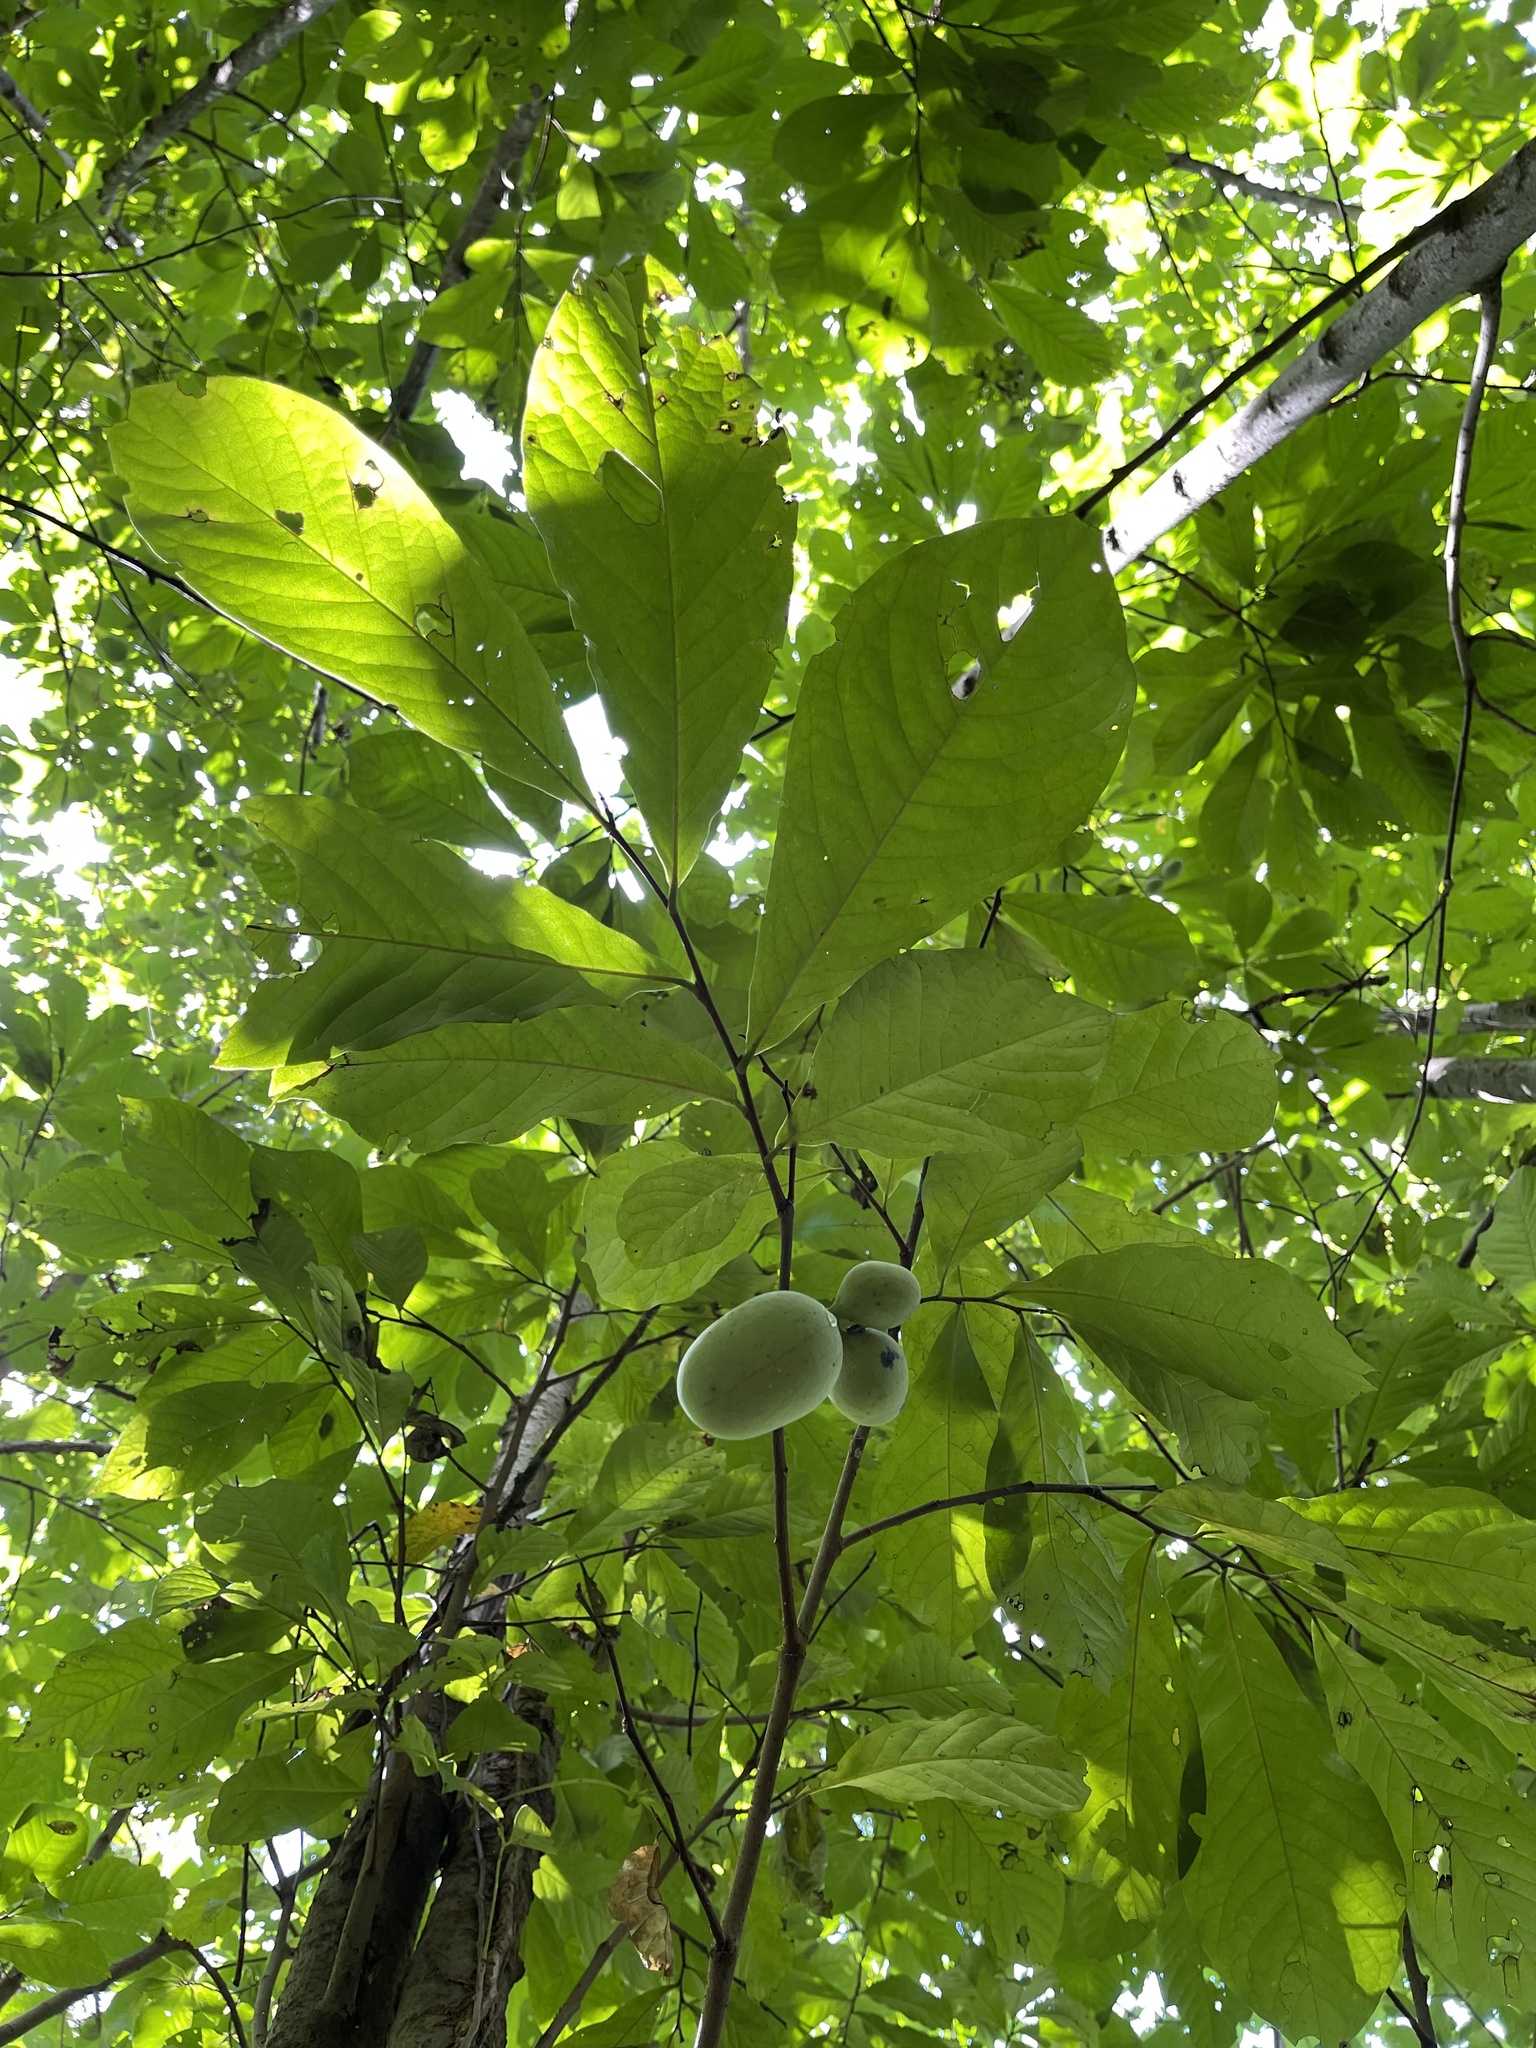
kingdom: Plantae
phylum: Tracheophyta
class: Magnoliopsida
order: Magnoliales
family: Annonaceae
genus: Asimina
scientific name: Asimina triloba
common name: Dog-banana
